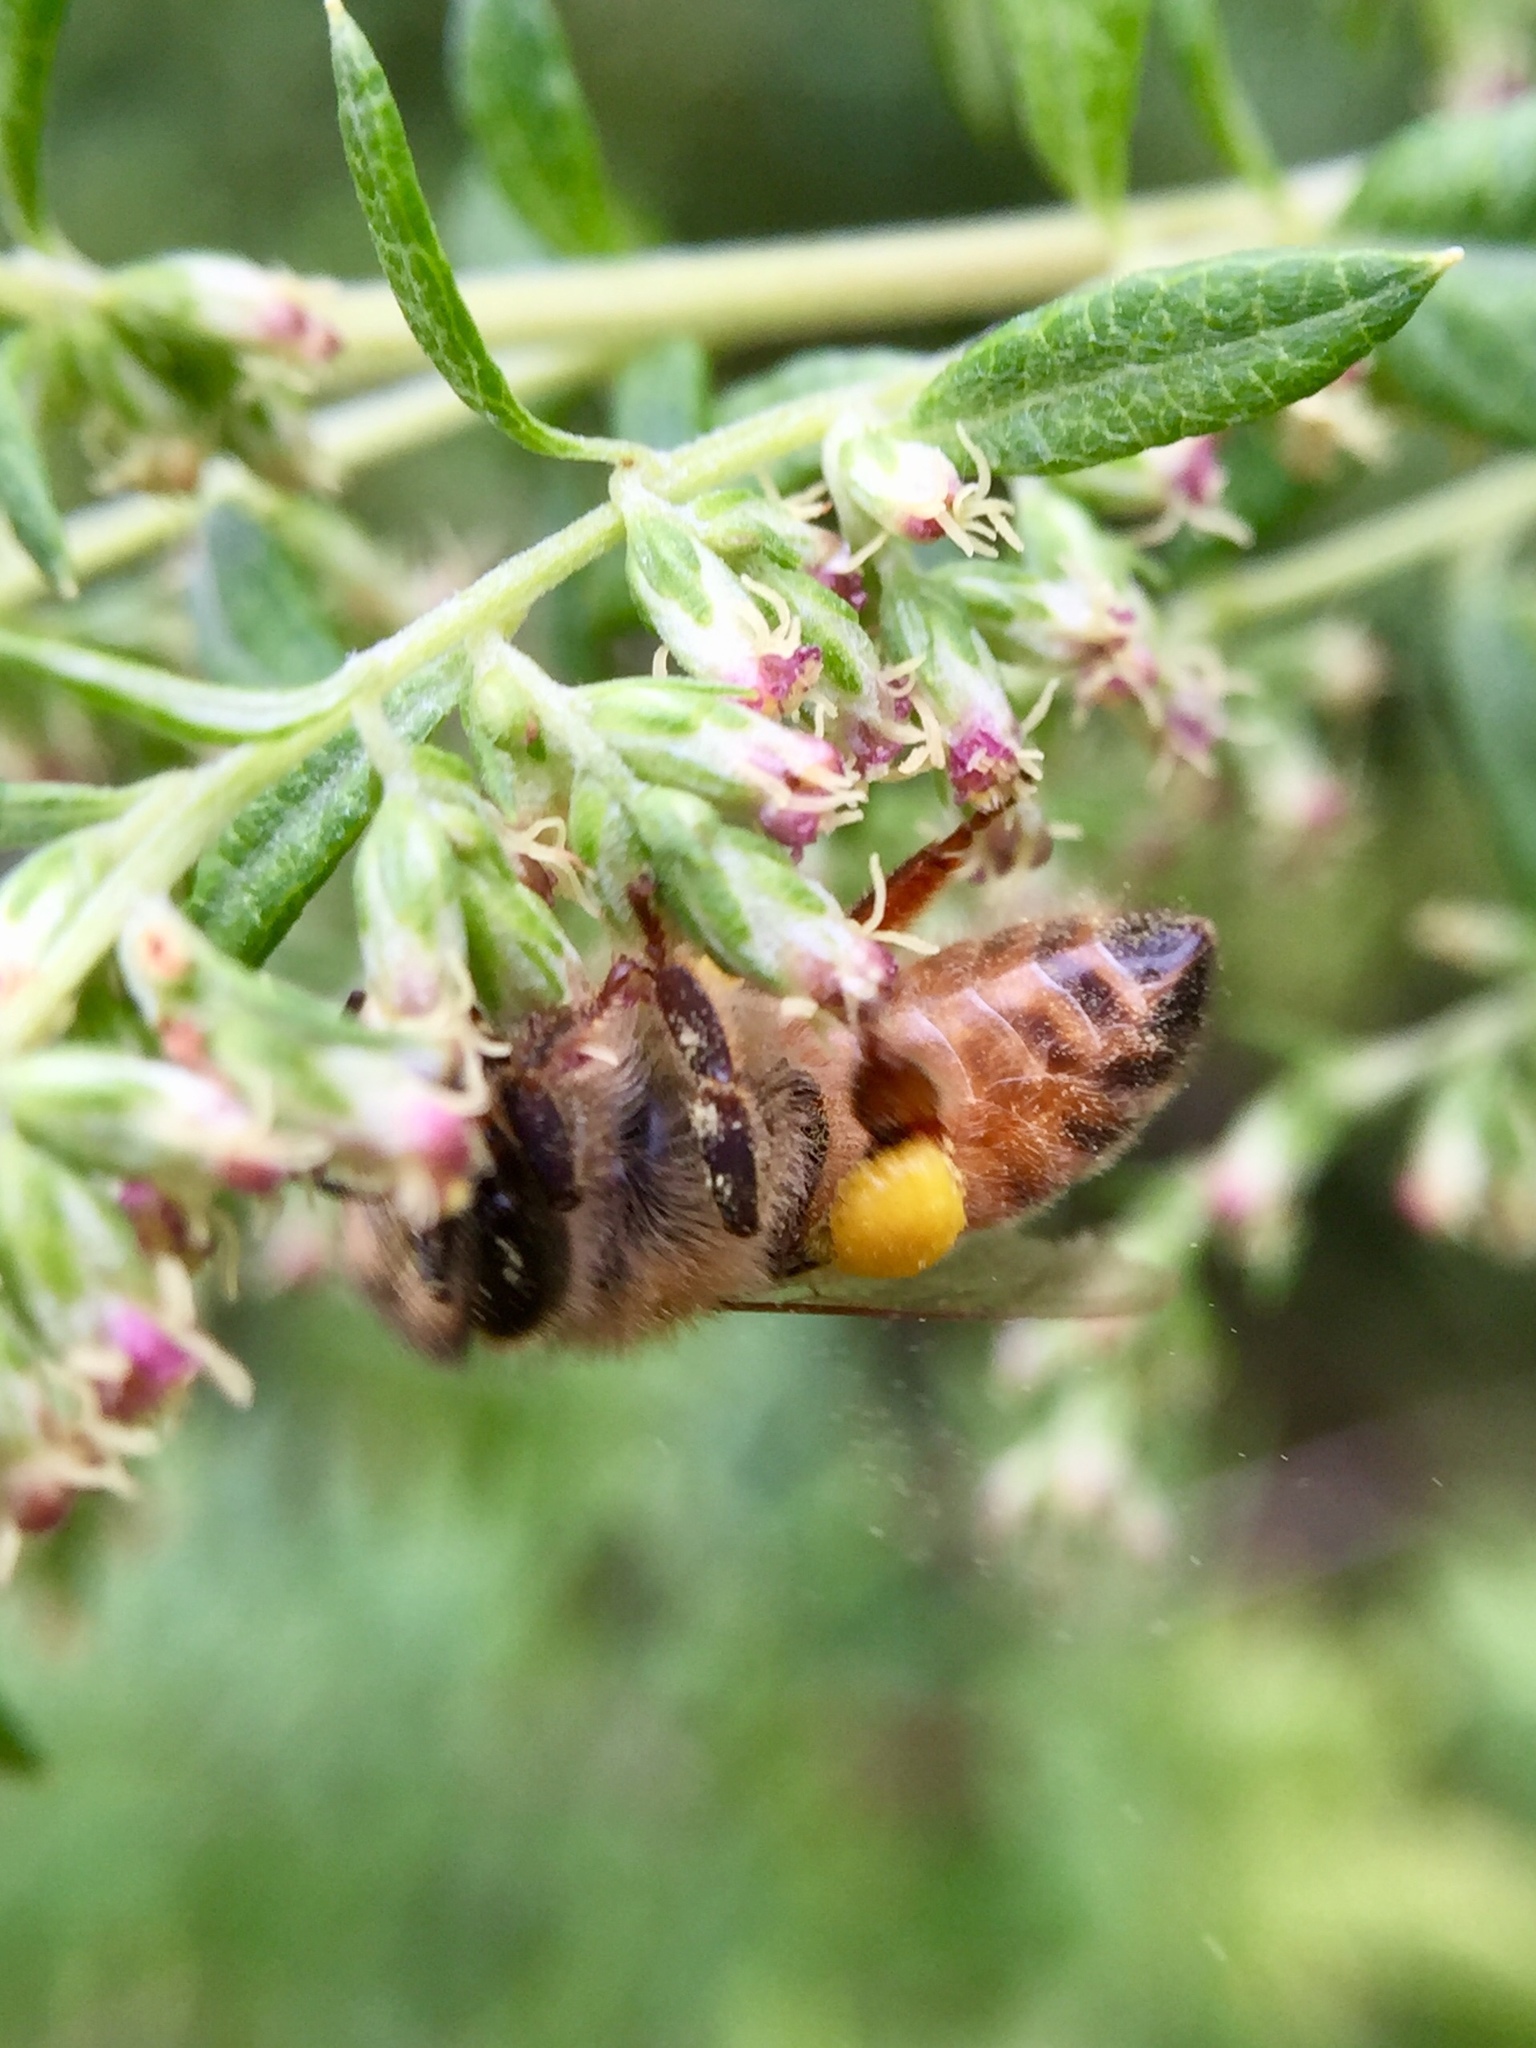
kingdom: Animalia
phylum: Arthropoda
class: Insecta
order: Hymenoptera
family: Apidae
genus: Apis
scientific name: Apis mellifera
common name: Honey bee
